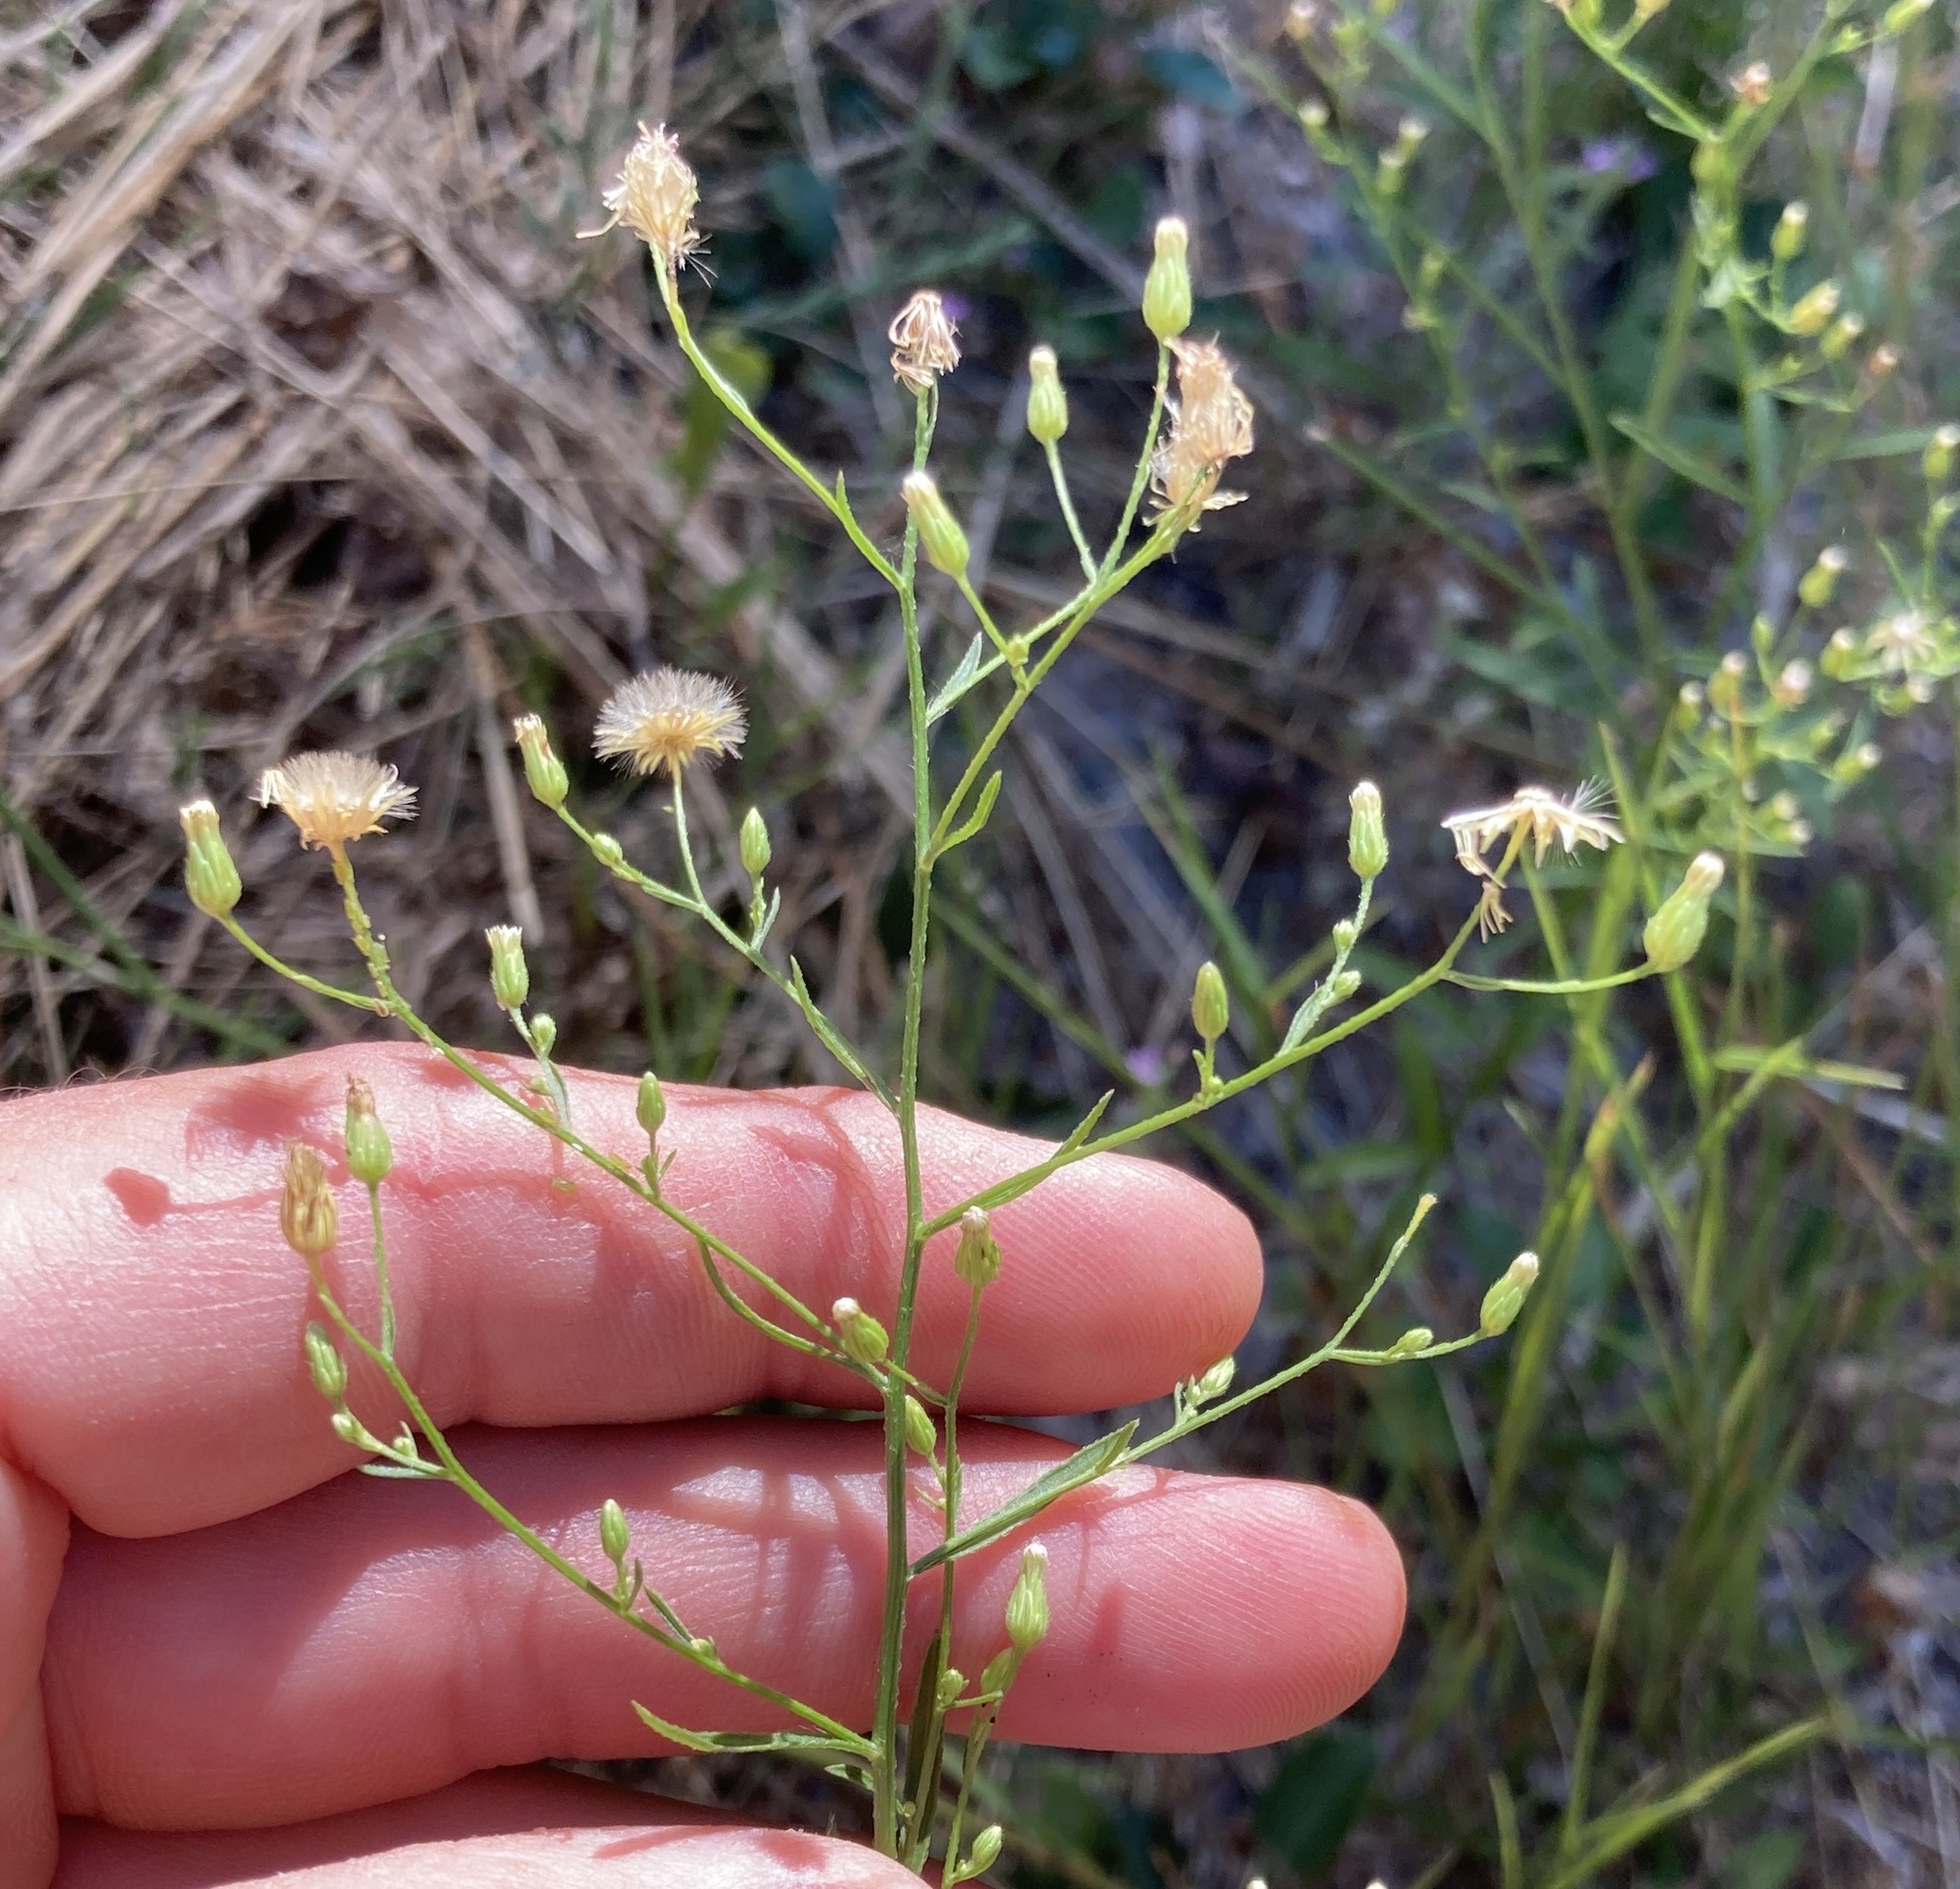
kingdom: Plantae
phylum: Tracheophyta
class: Magnoliopsida
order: Asterales
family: Asteraceae
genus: Erigeron
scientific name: Erigeron canadensis
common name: Canadian fleabane
